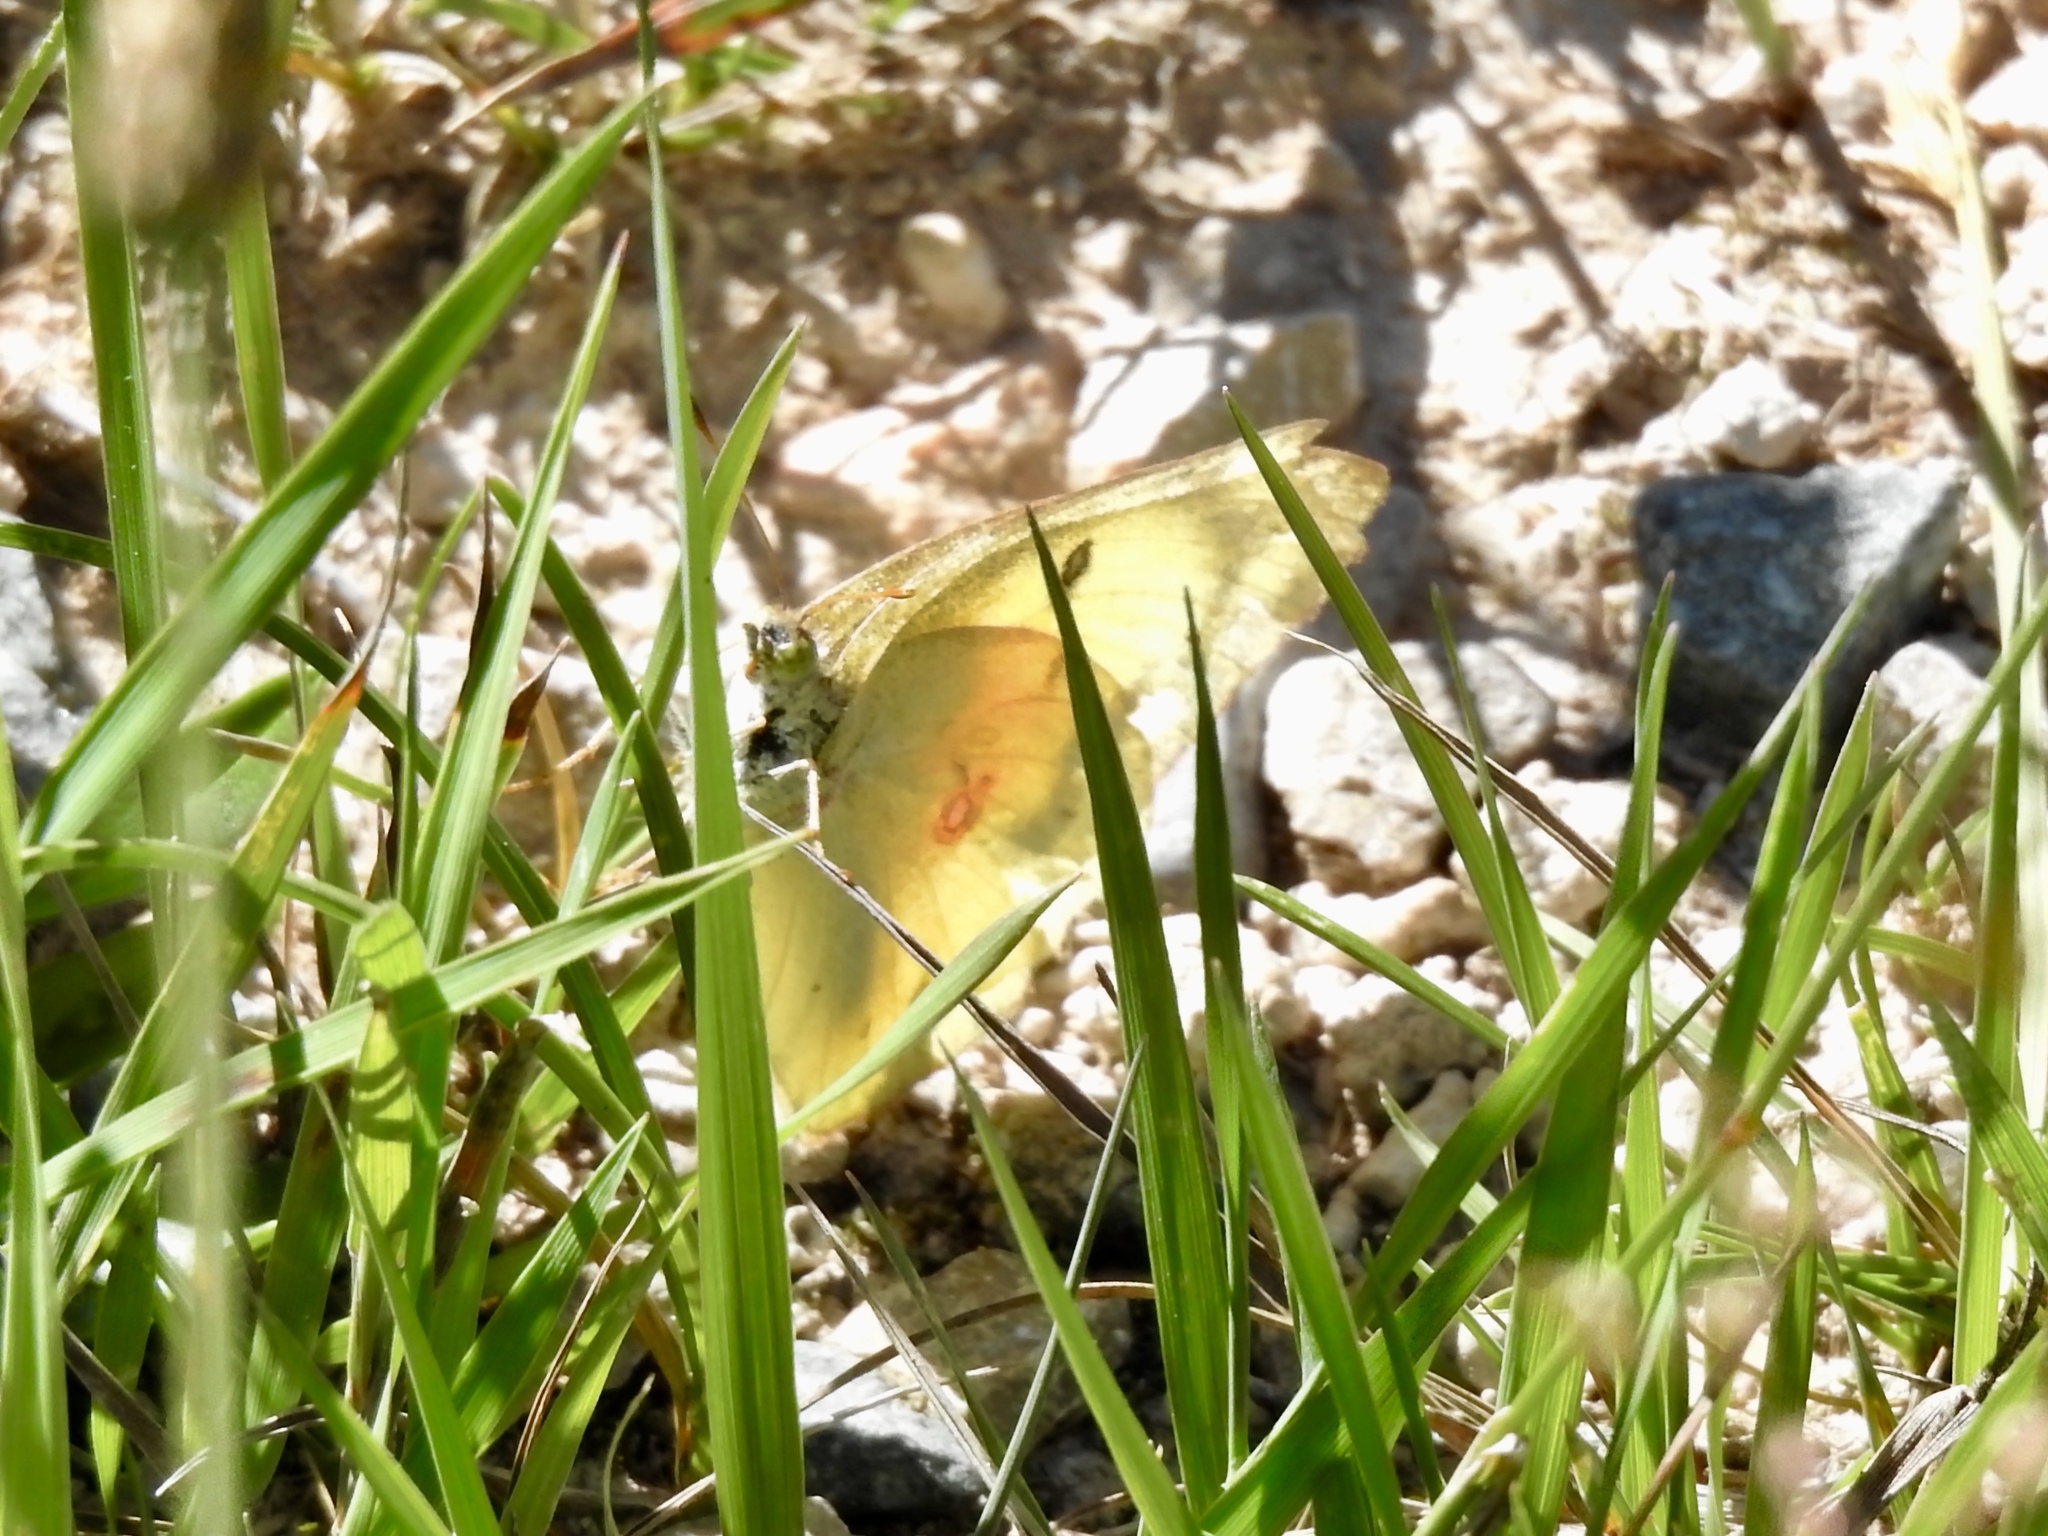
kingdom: Animalia
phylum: Arthropoda
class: Insecta
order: Lepidoptera
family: Pieridae
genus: Colias
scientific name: Colias eurytheme
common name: Alfalfa butterfly
